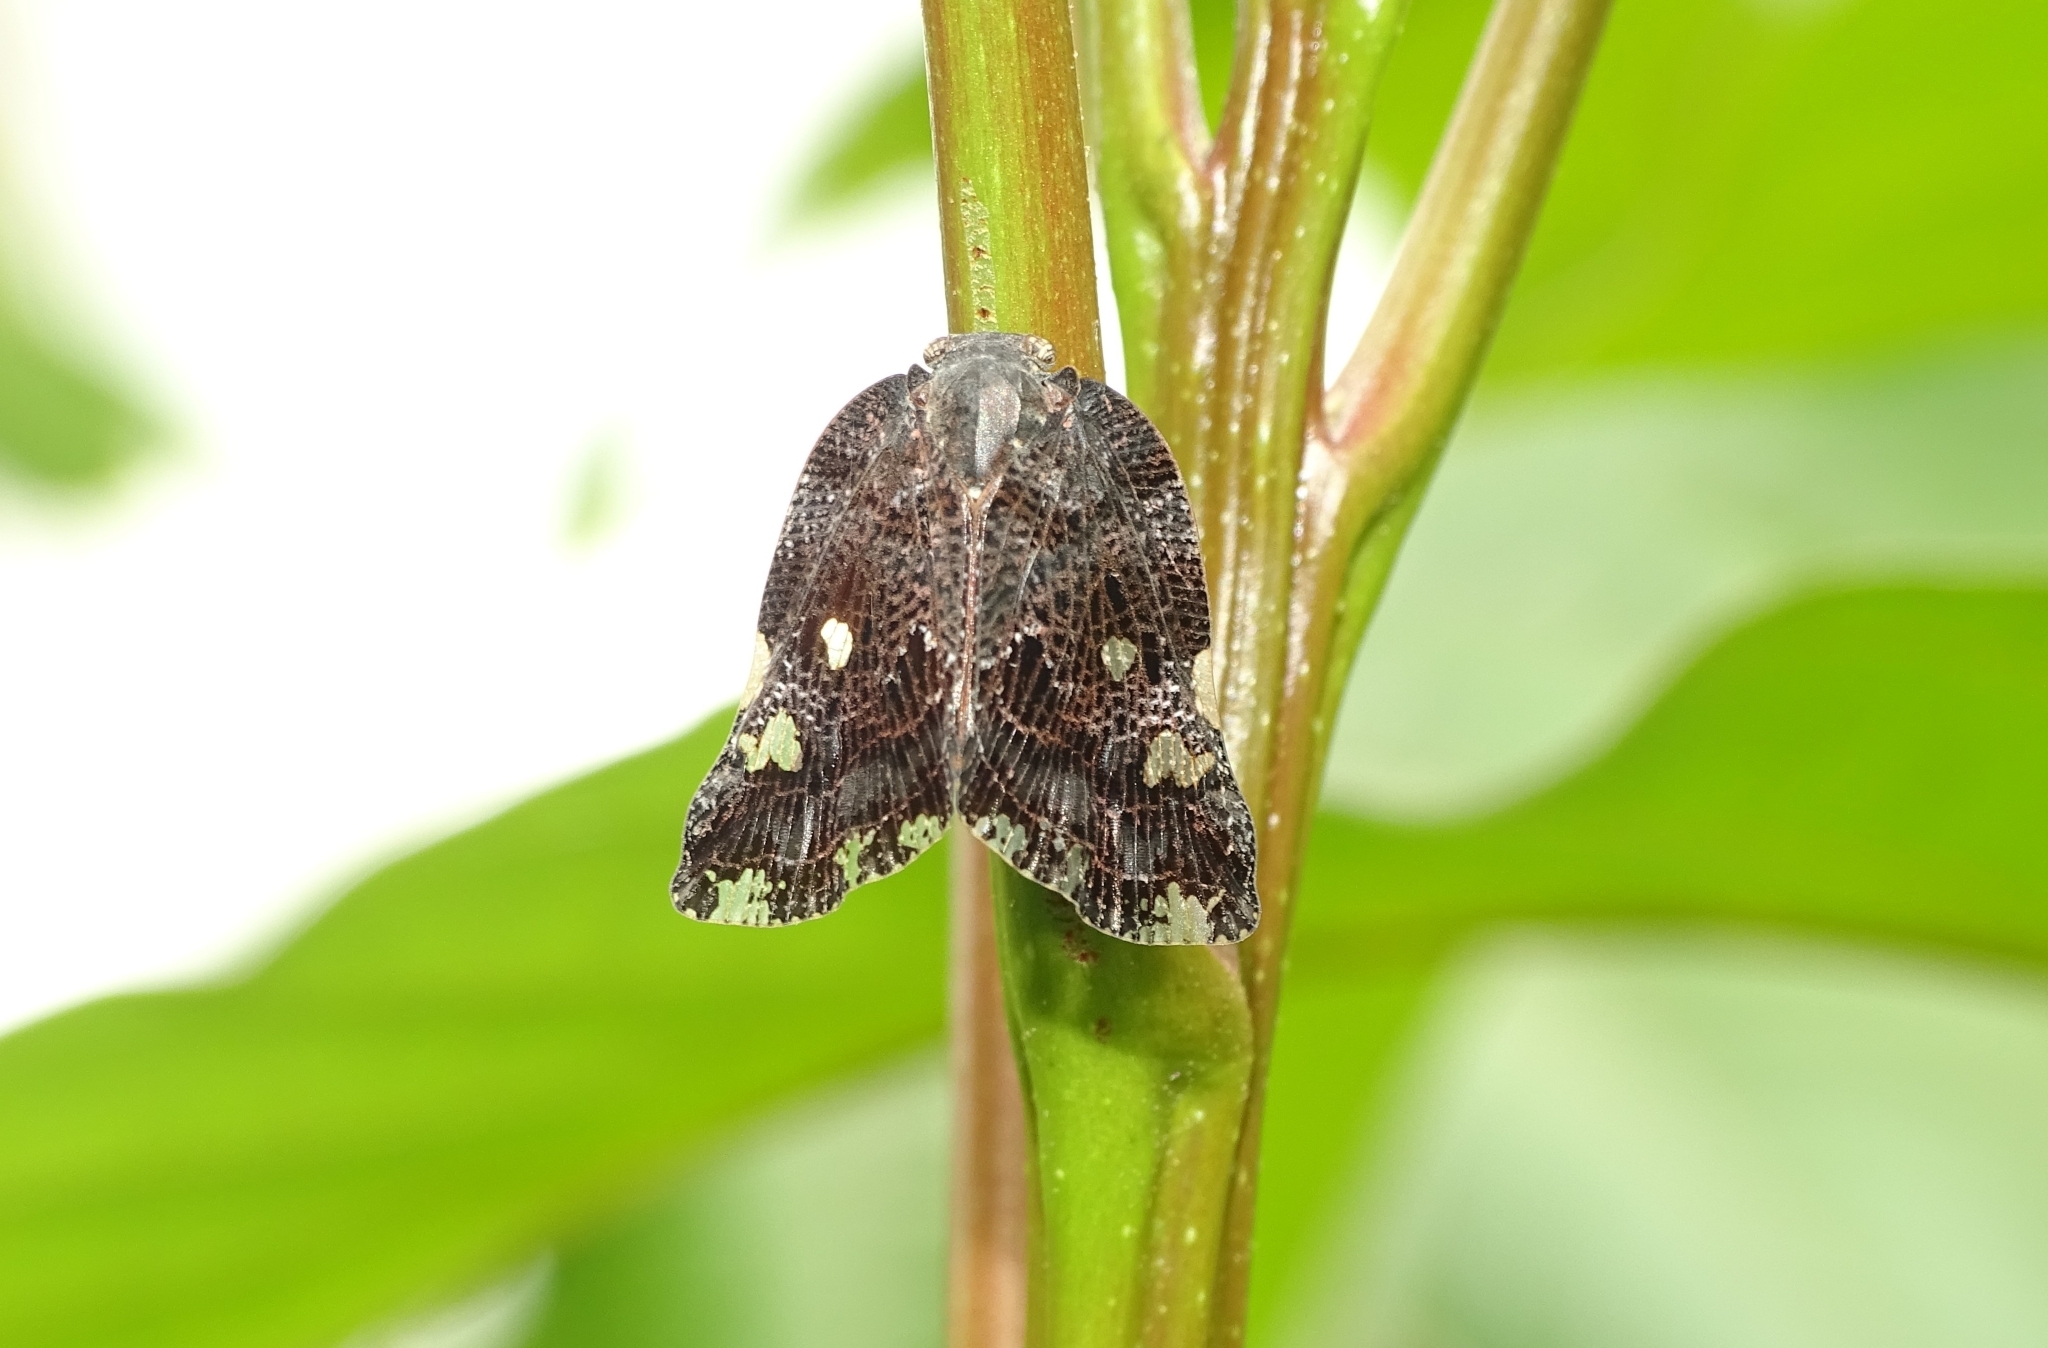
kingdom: Animalia
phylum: Arthropoda
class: Insecta
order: Hemiptera
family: Ricaniidae
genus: Ricania
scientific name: Ricania speculum
